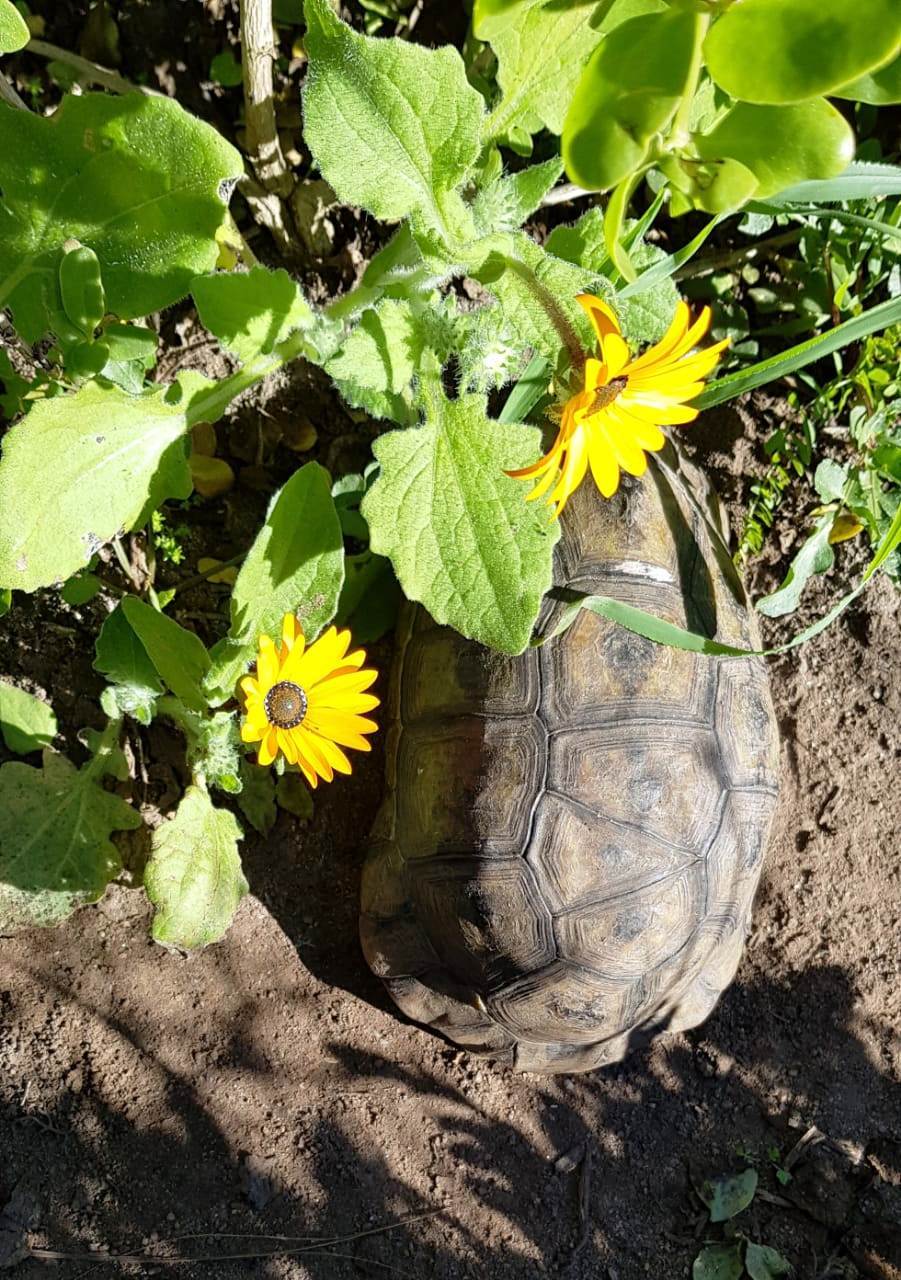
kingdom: Animalia
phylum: Chordata
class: Testudines
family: Testudinidae
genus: Chersina
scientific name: Chersina angulata
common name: South african bowsprit tortoise
